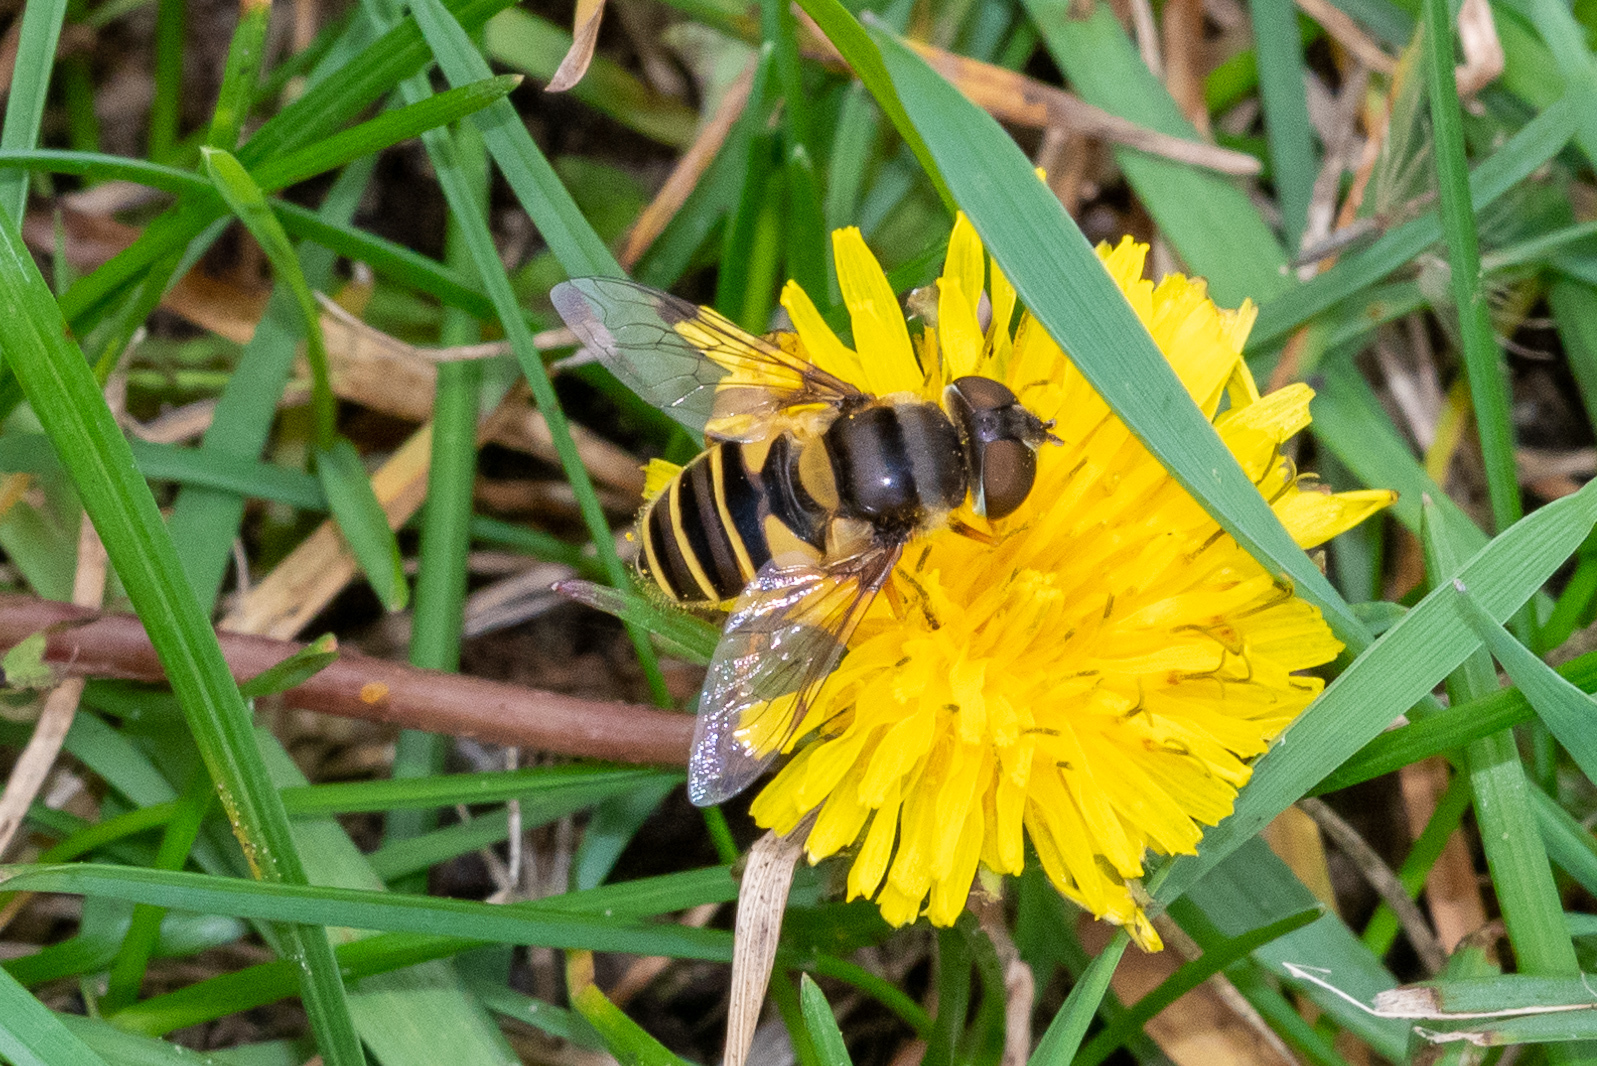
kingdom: Animalia
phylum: Arthropoda
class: Insecta
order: Diptera
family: Syrphidae
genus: Eristalis
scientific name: Eristalis transversa
